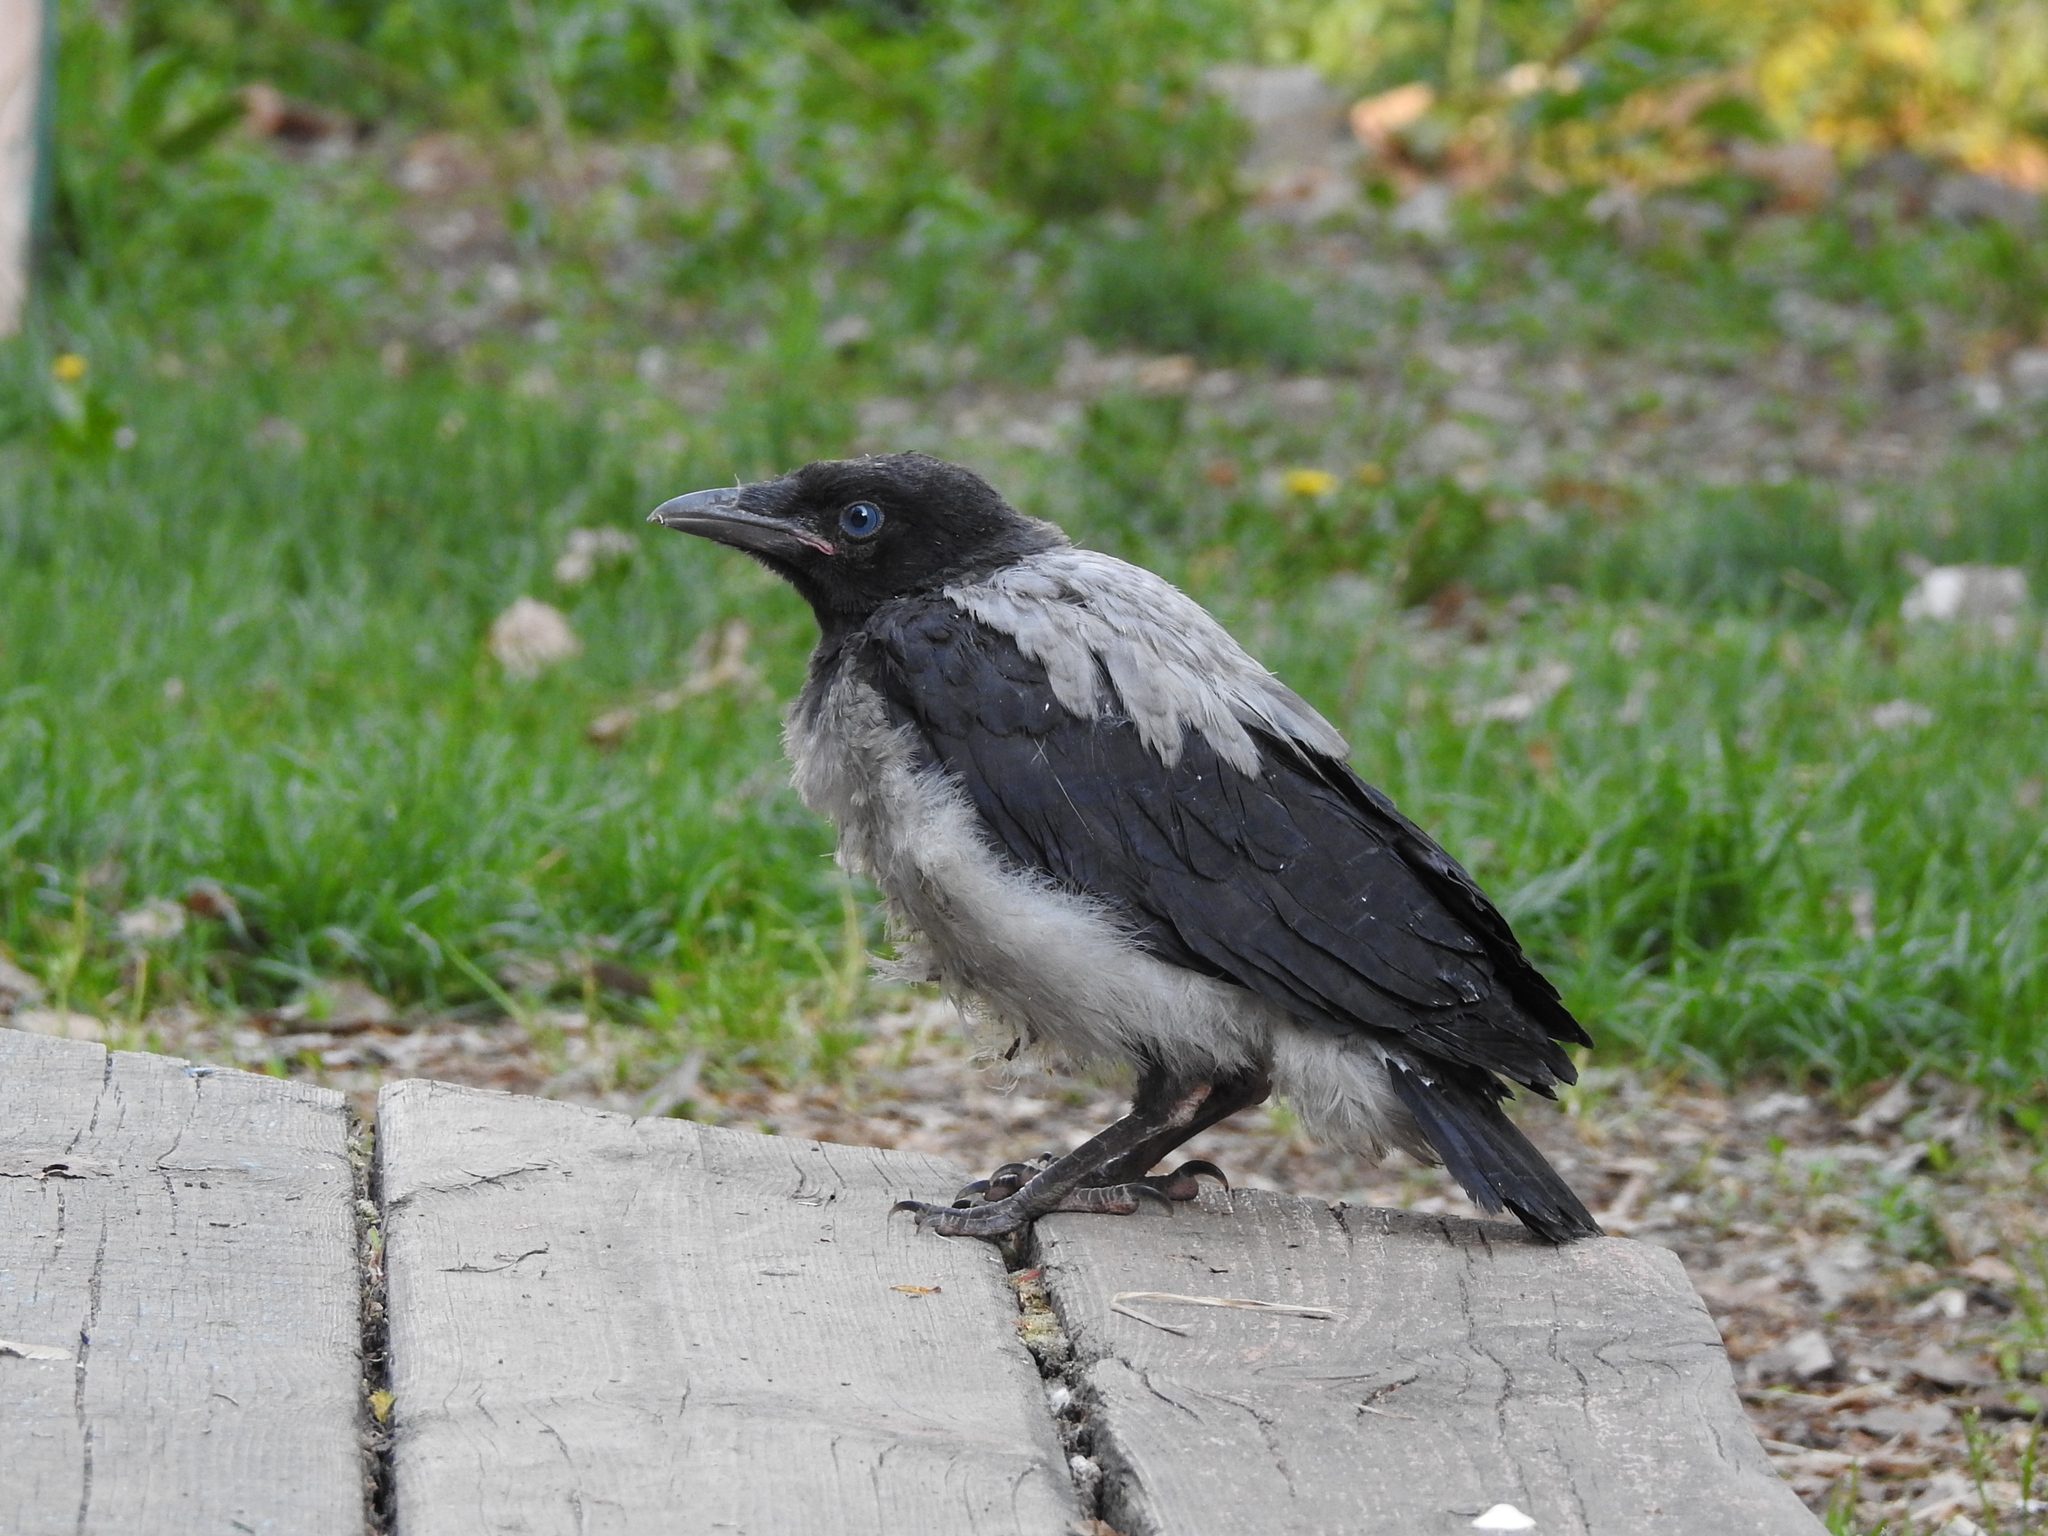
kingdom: Animalia
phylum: Chordata
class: Aves
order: Passeriformes
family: Corvidae
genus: Corvus
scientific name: Corvus cornix
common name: Hooded crow
